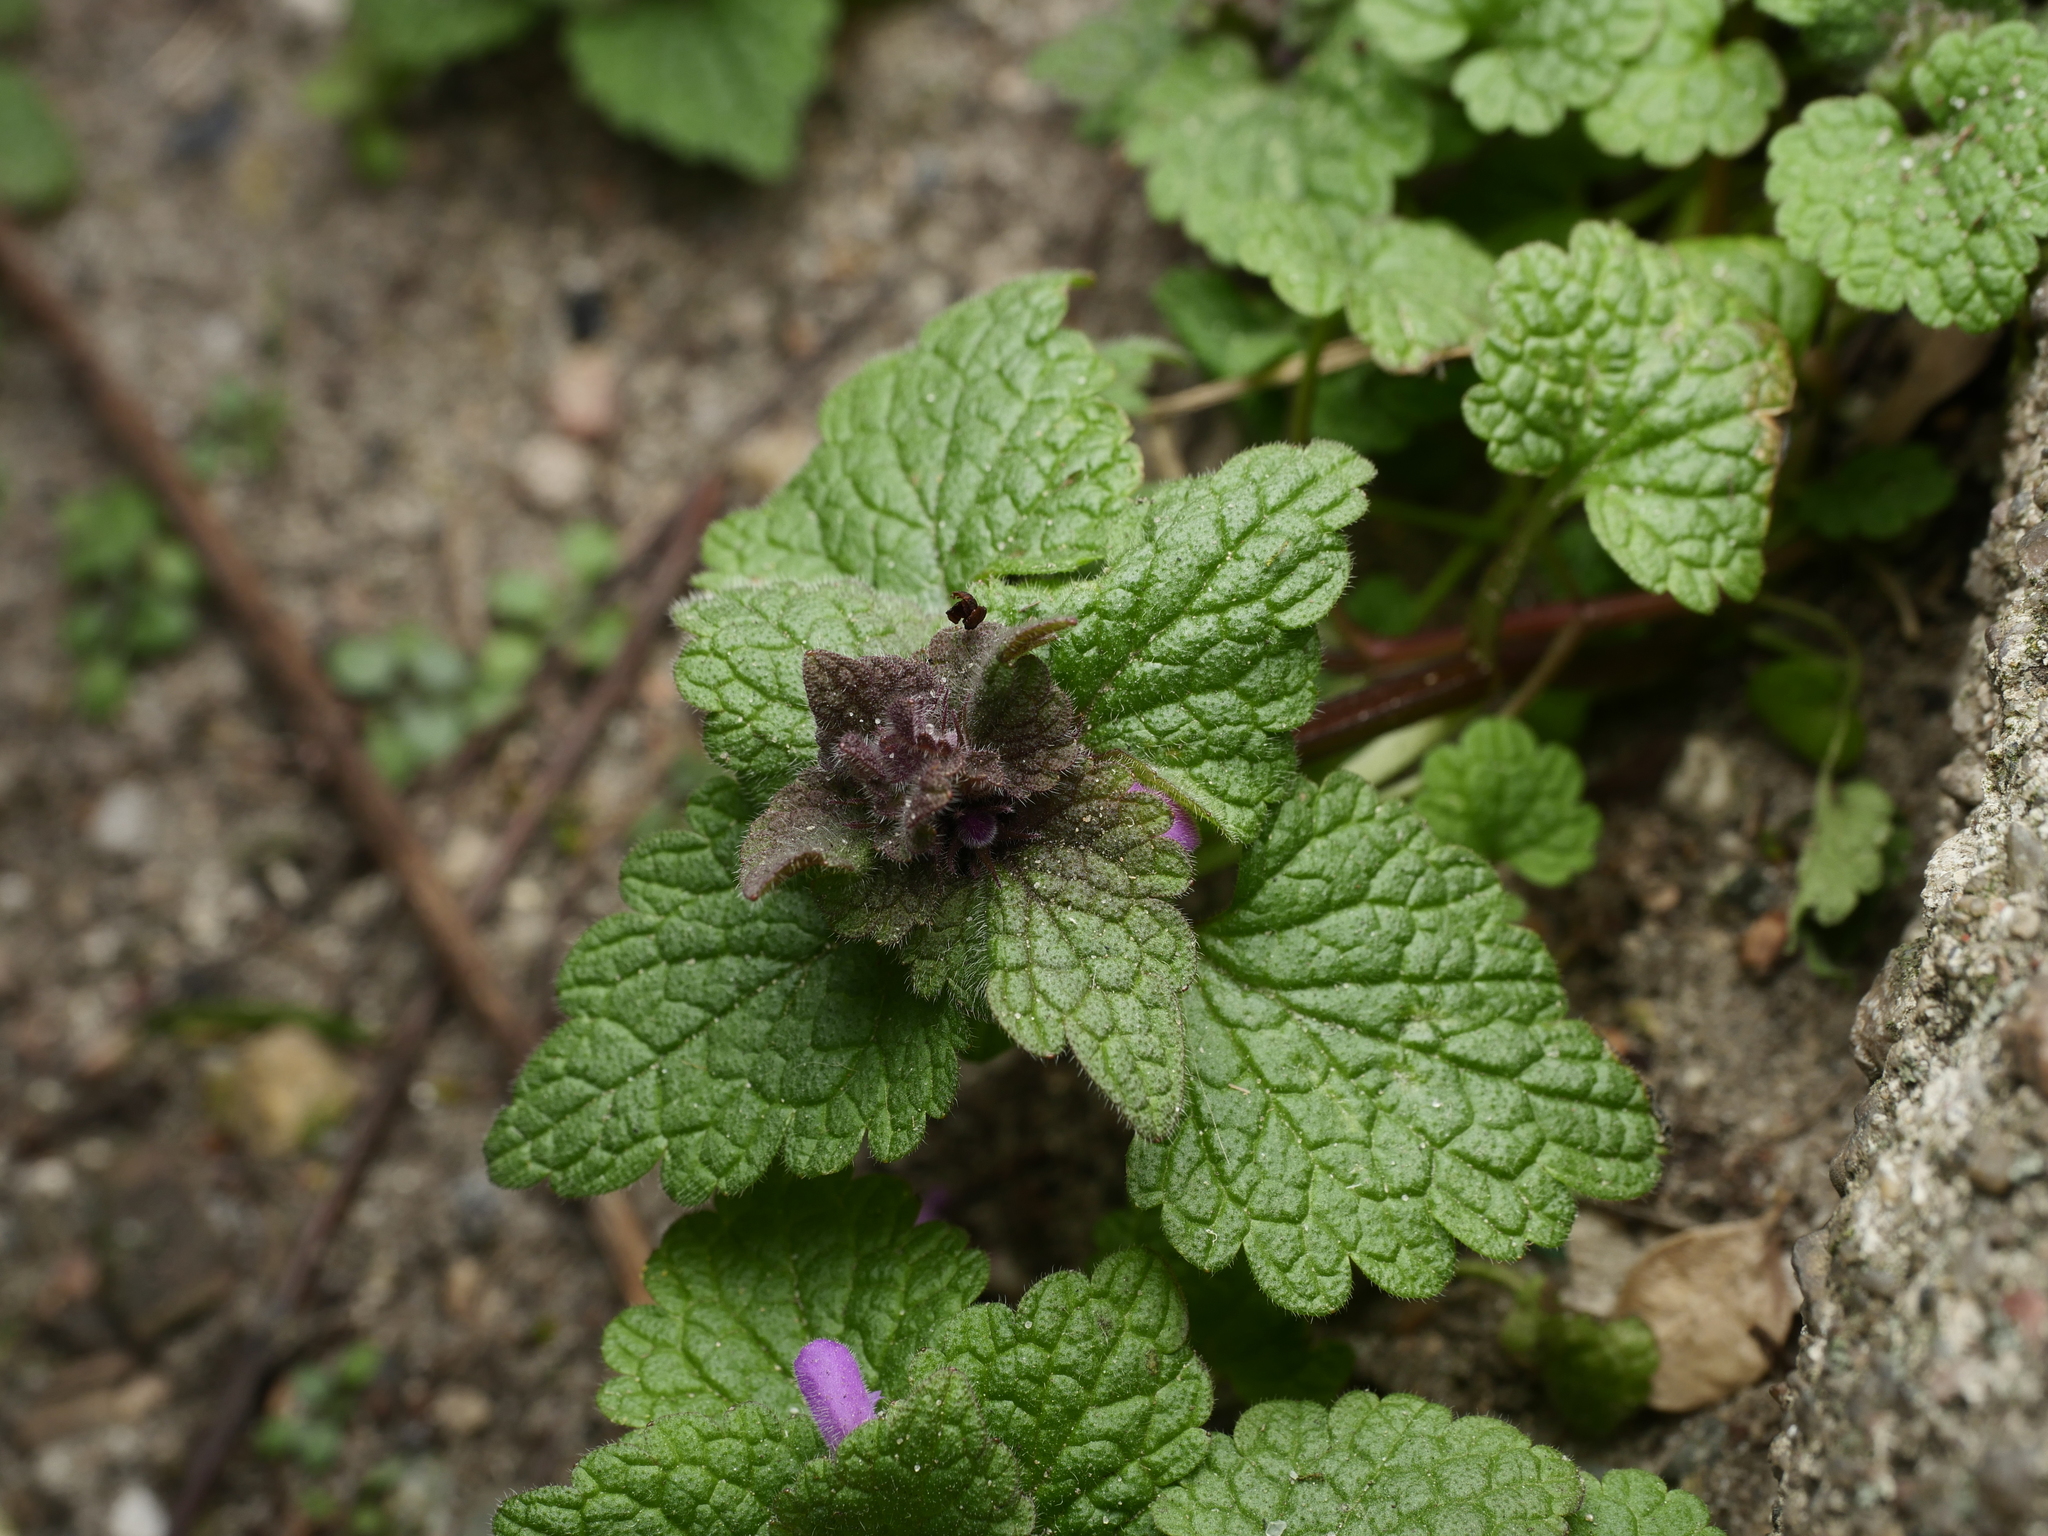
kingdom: Plantae
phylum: Tracheophyta
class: Magnoliopsida
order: Lamiales
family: Lamiaceae
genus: Lamium
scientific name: Lamium purpureum
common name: Red dead-nettle
